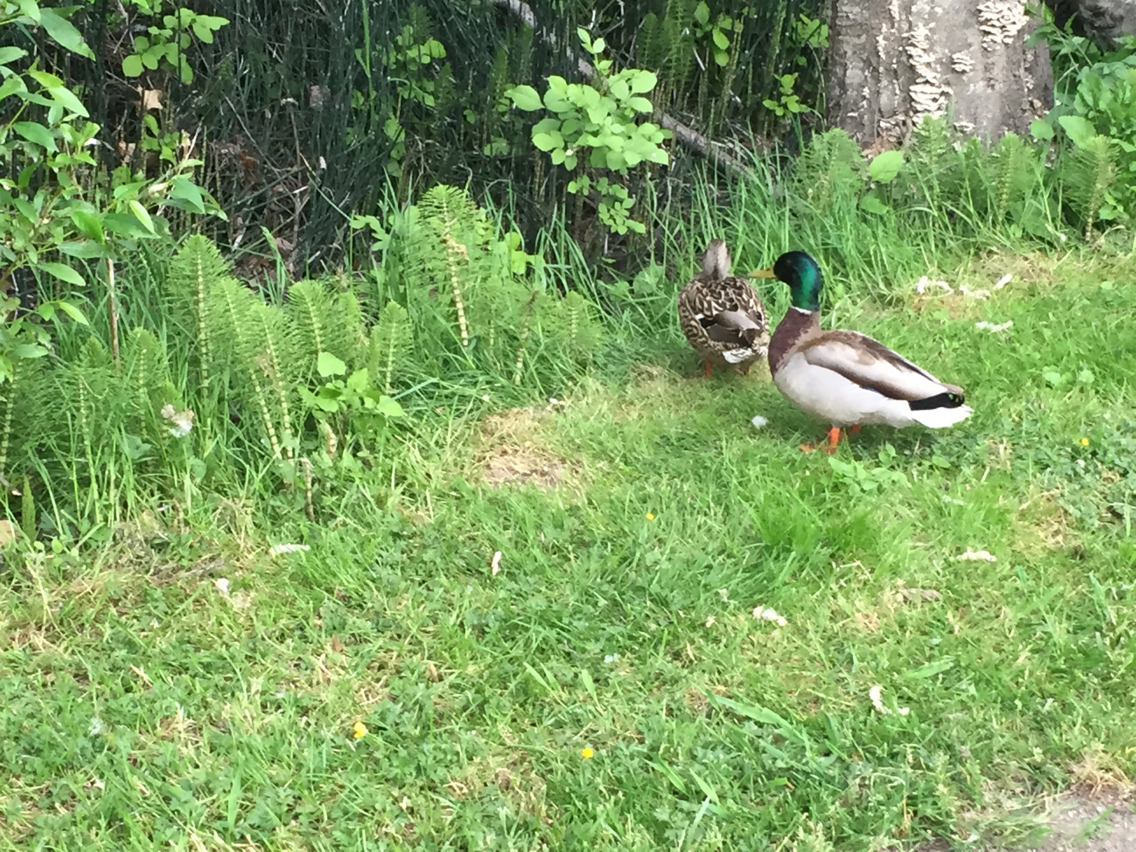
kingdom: Animalia
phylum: Chordata
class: Aves
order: Anseriformes
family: Anatidae
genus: Anas
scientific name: Anas platyrhynchos
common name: Mallard
